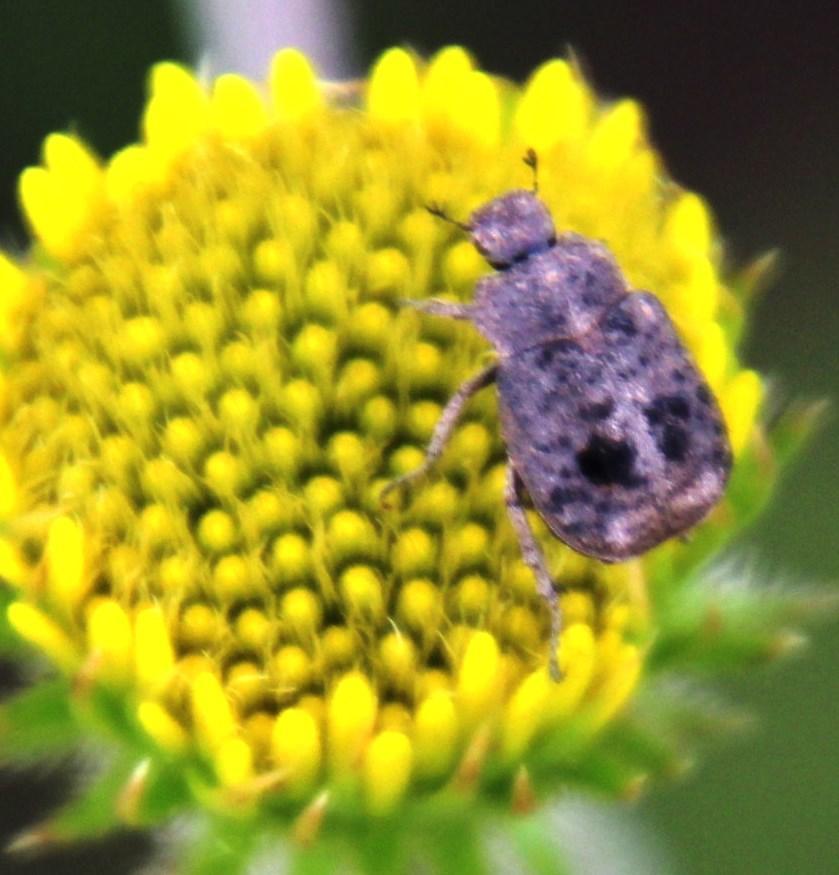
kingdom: Plantae
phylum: Tracheophyta
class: Magnoliopsida
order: Asterales
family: Asteraceae
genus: Berkheya
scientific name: Berkheya setifera
